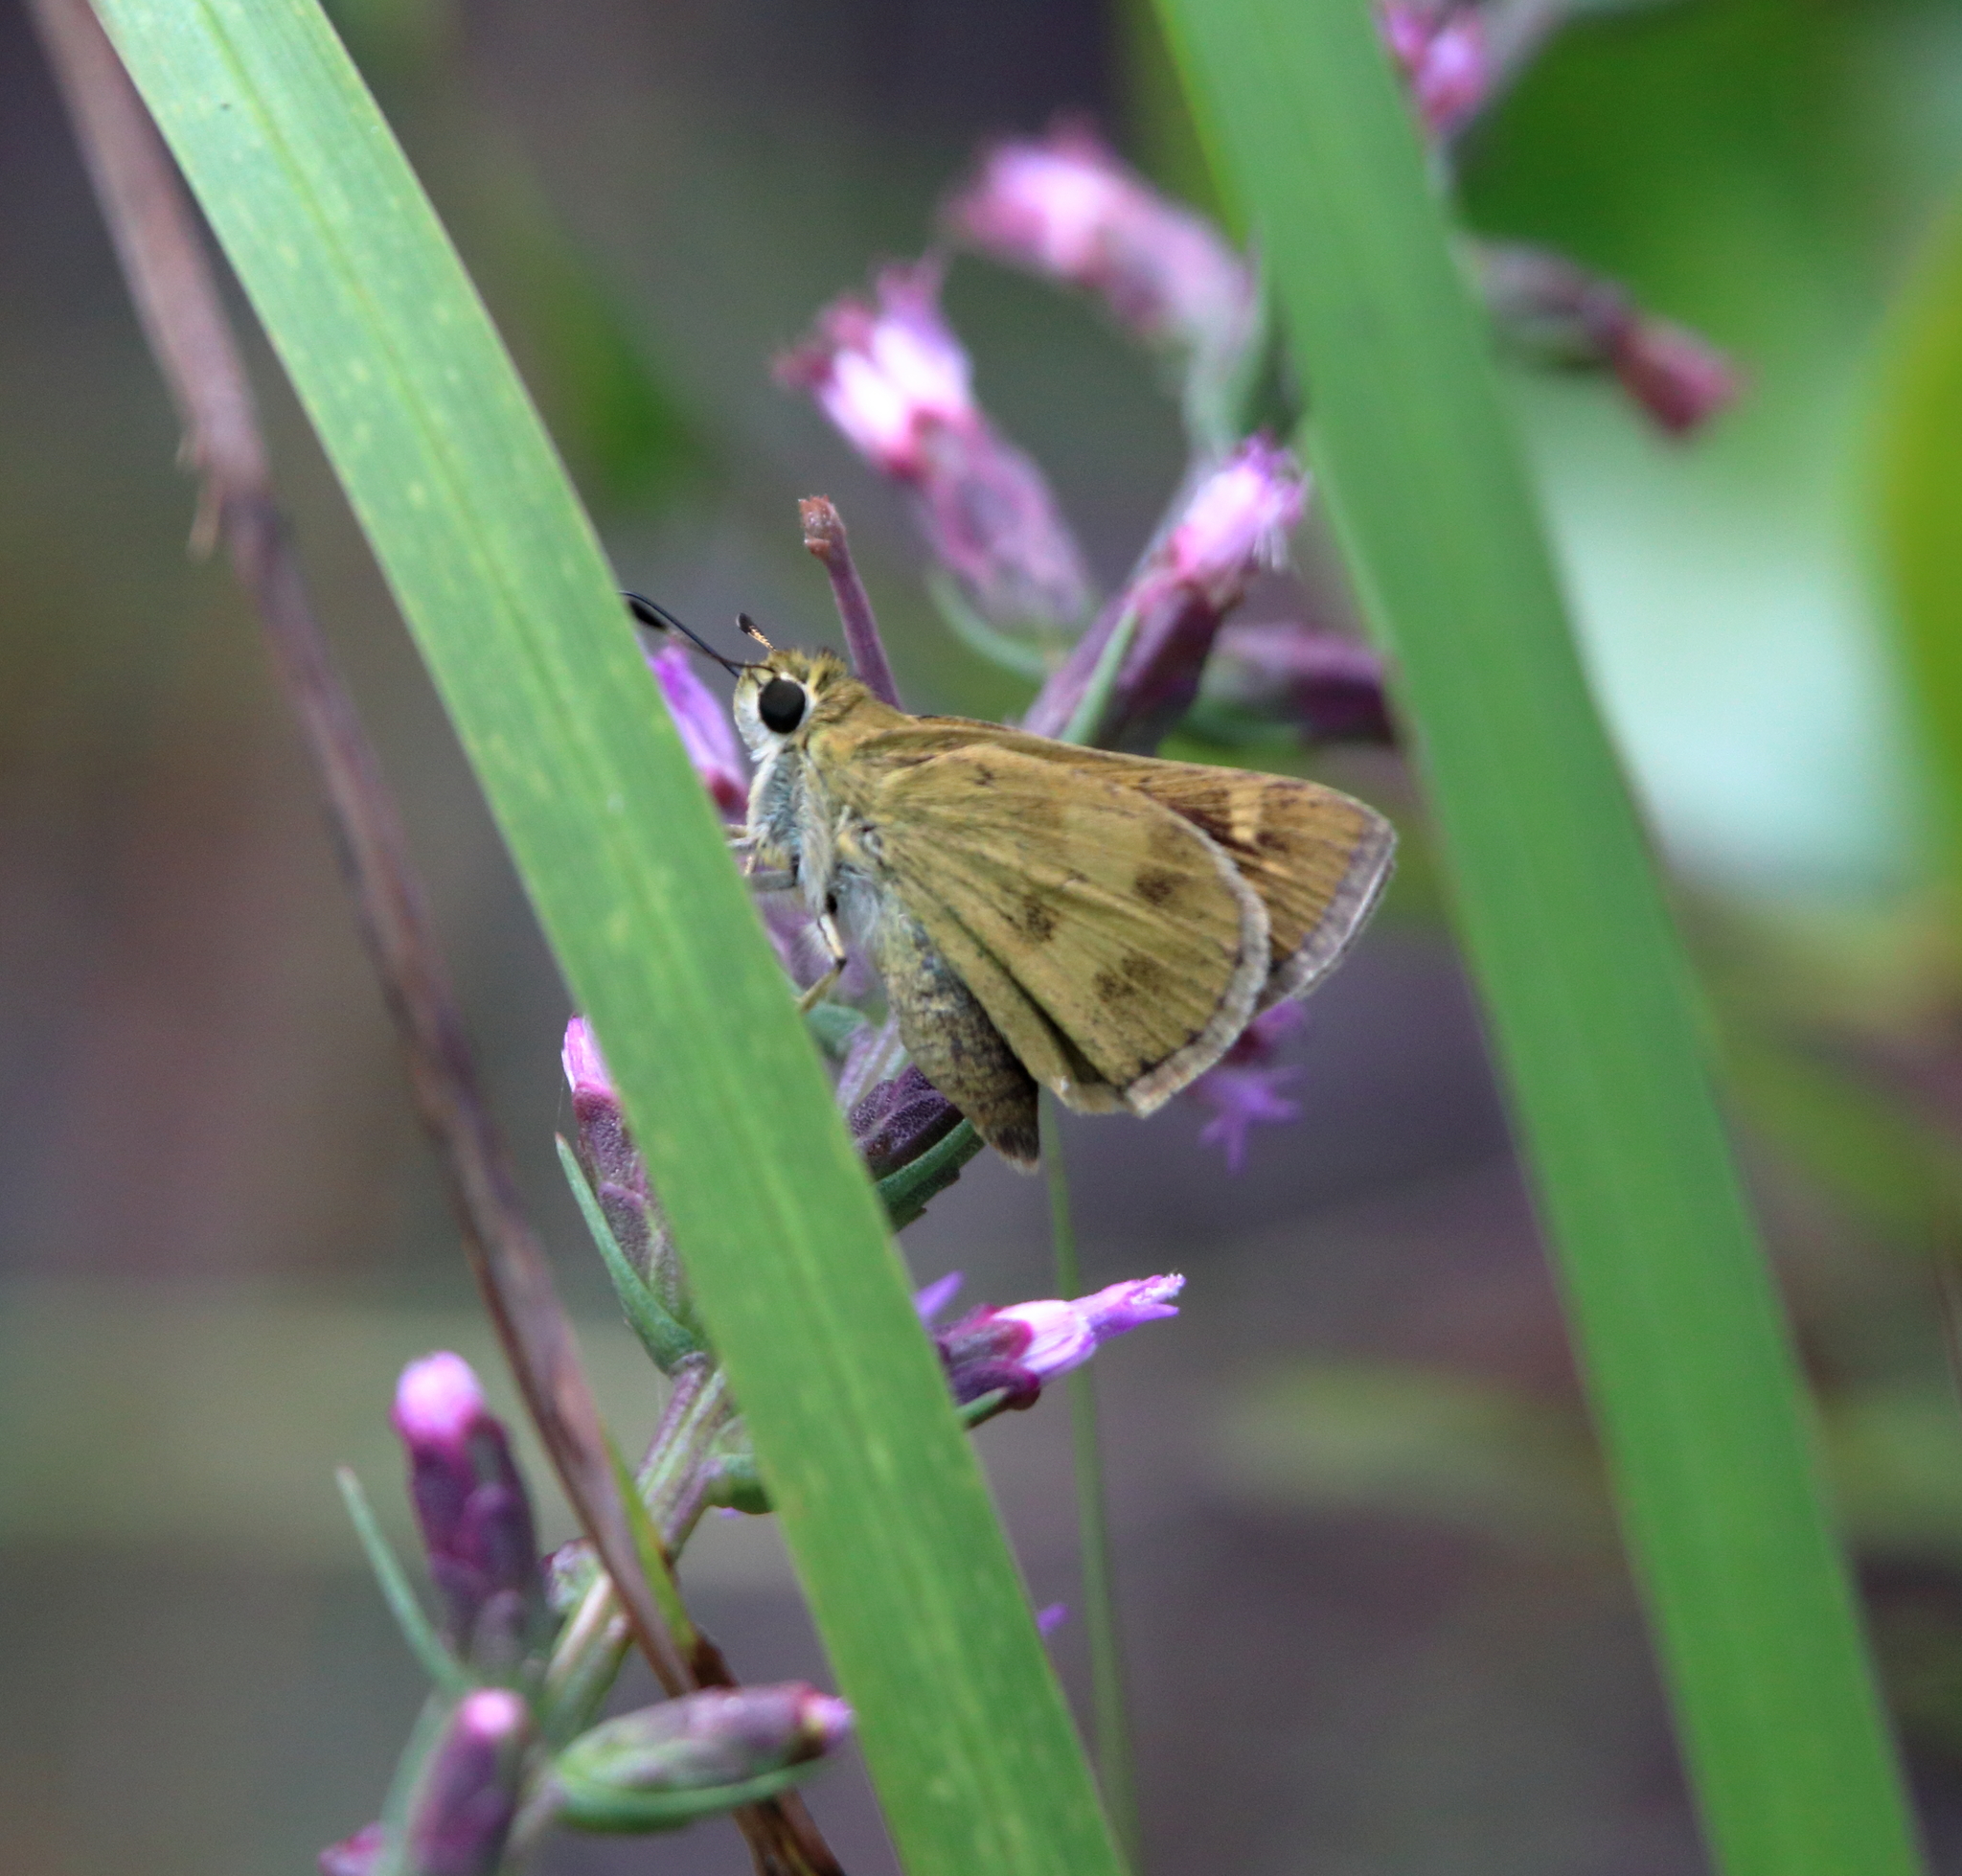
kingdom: Animalia
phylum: Arthropoda
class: Insecta
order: Lepidoptera
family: Hesperiidae
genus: Polites
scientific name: Polites vibex
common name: Whirlabout
